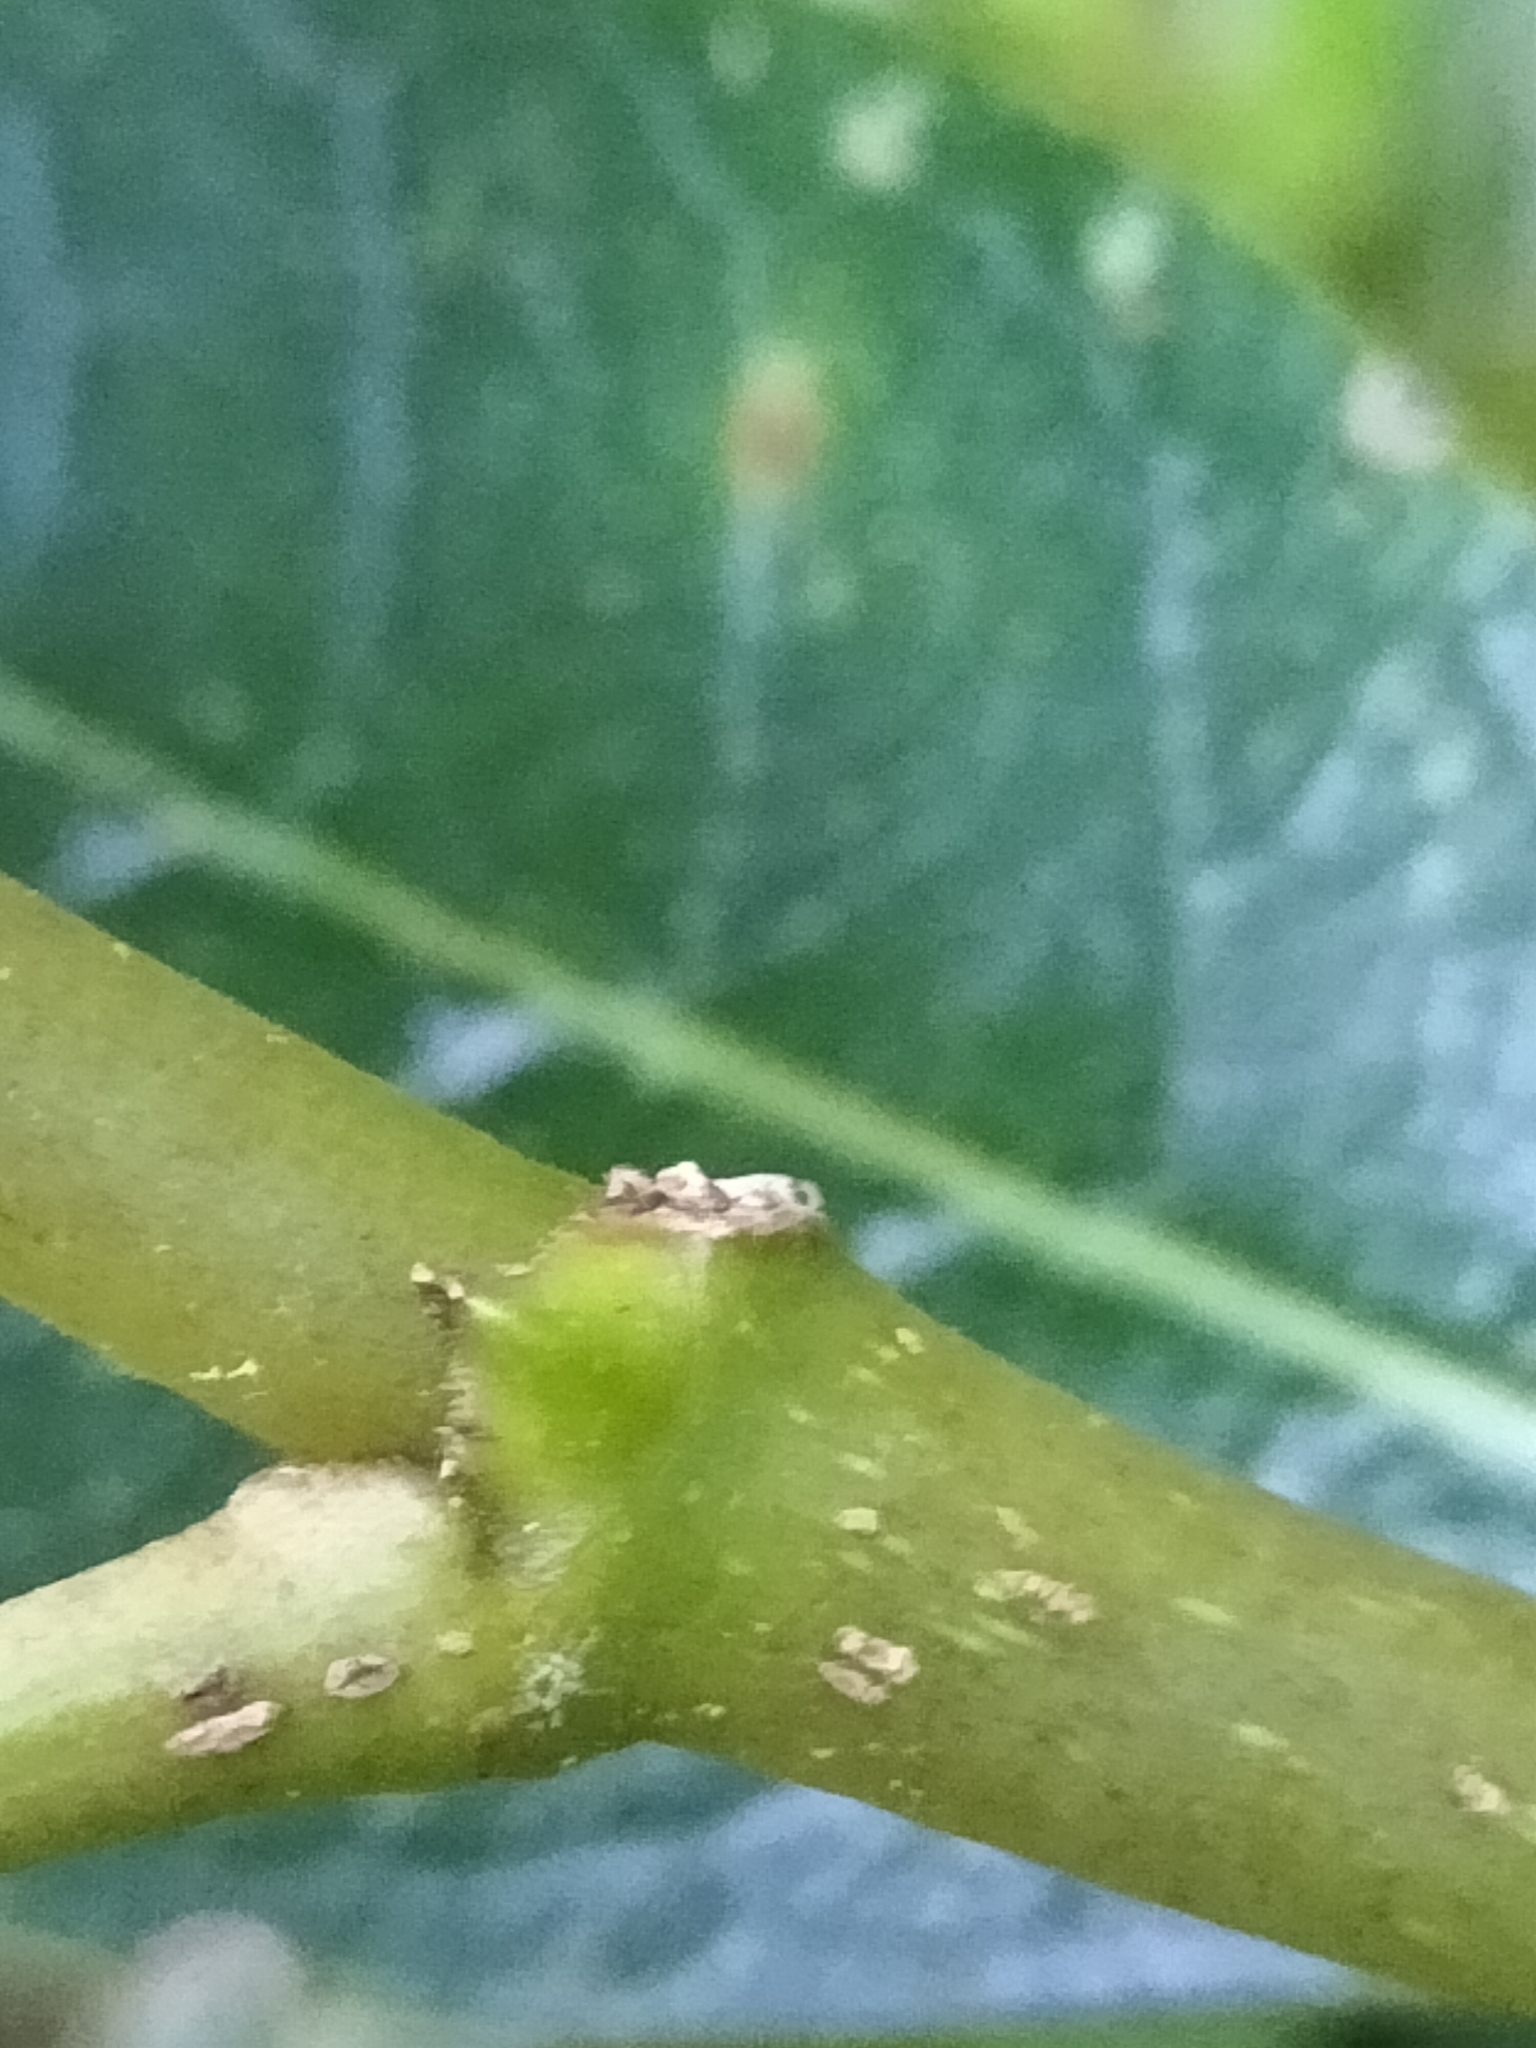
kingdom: Plantae
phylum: Tracheophyta
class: Magnoliopsida
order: Gentianales
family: Rubiaceae
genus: Coprosma
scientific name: Coprosma lucida
